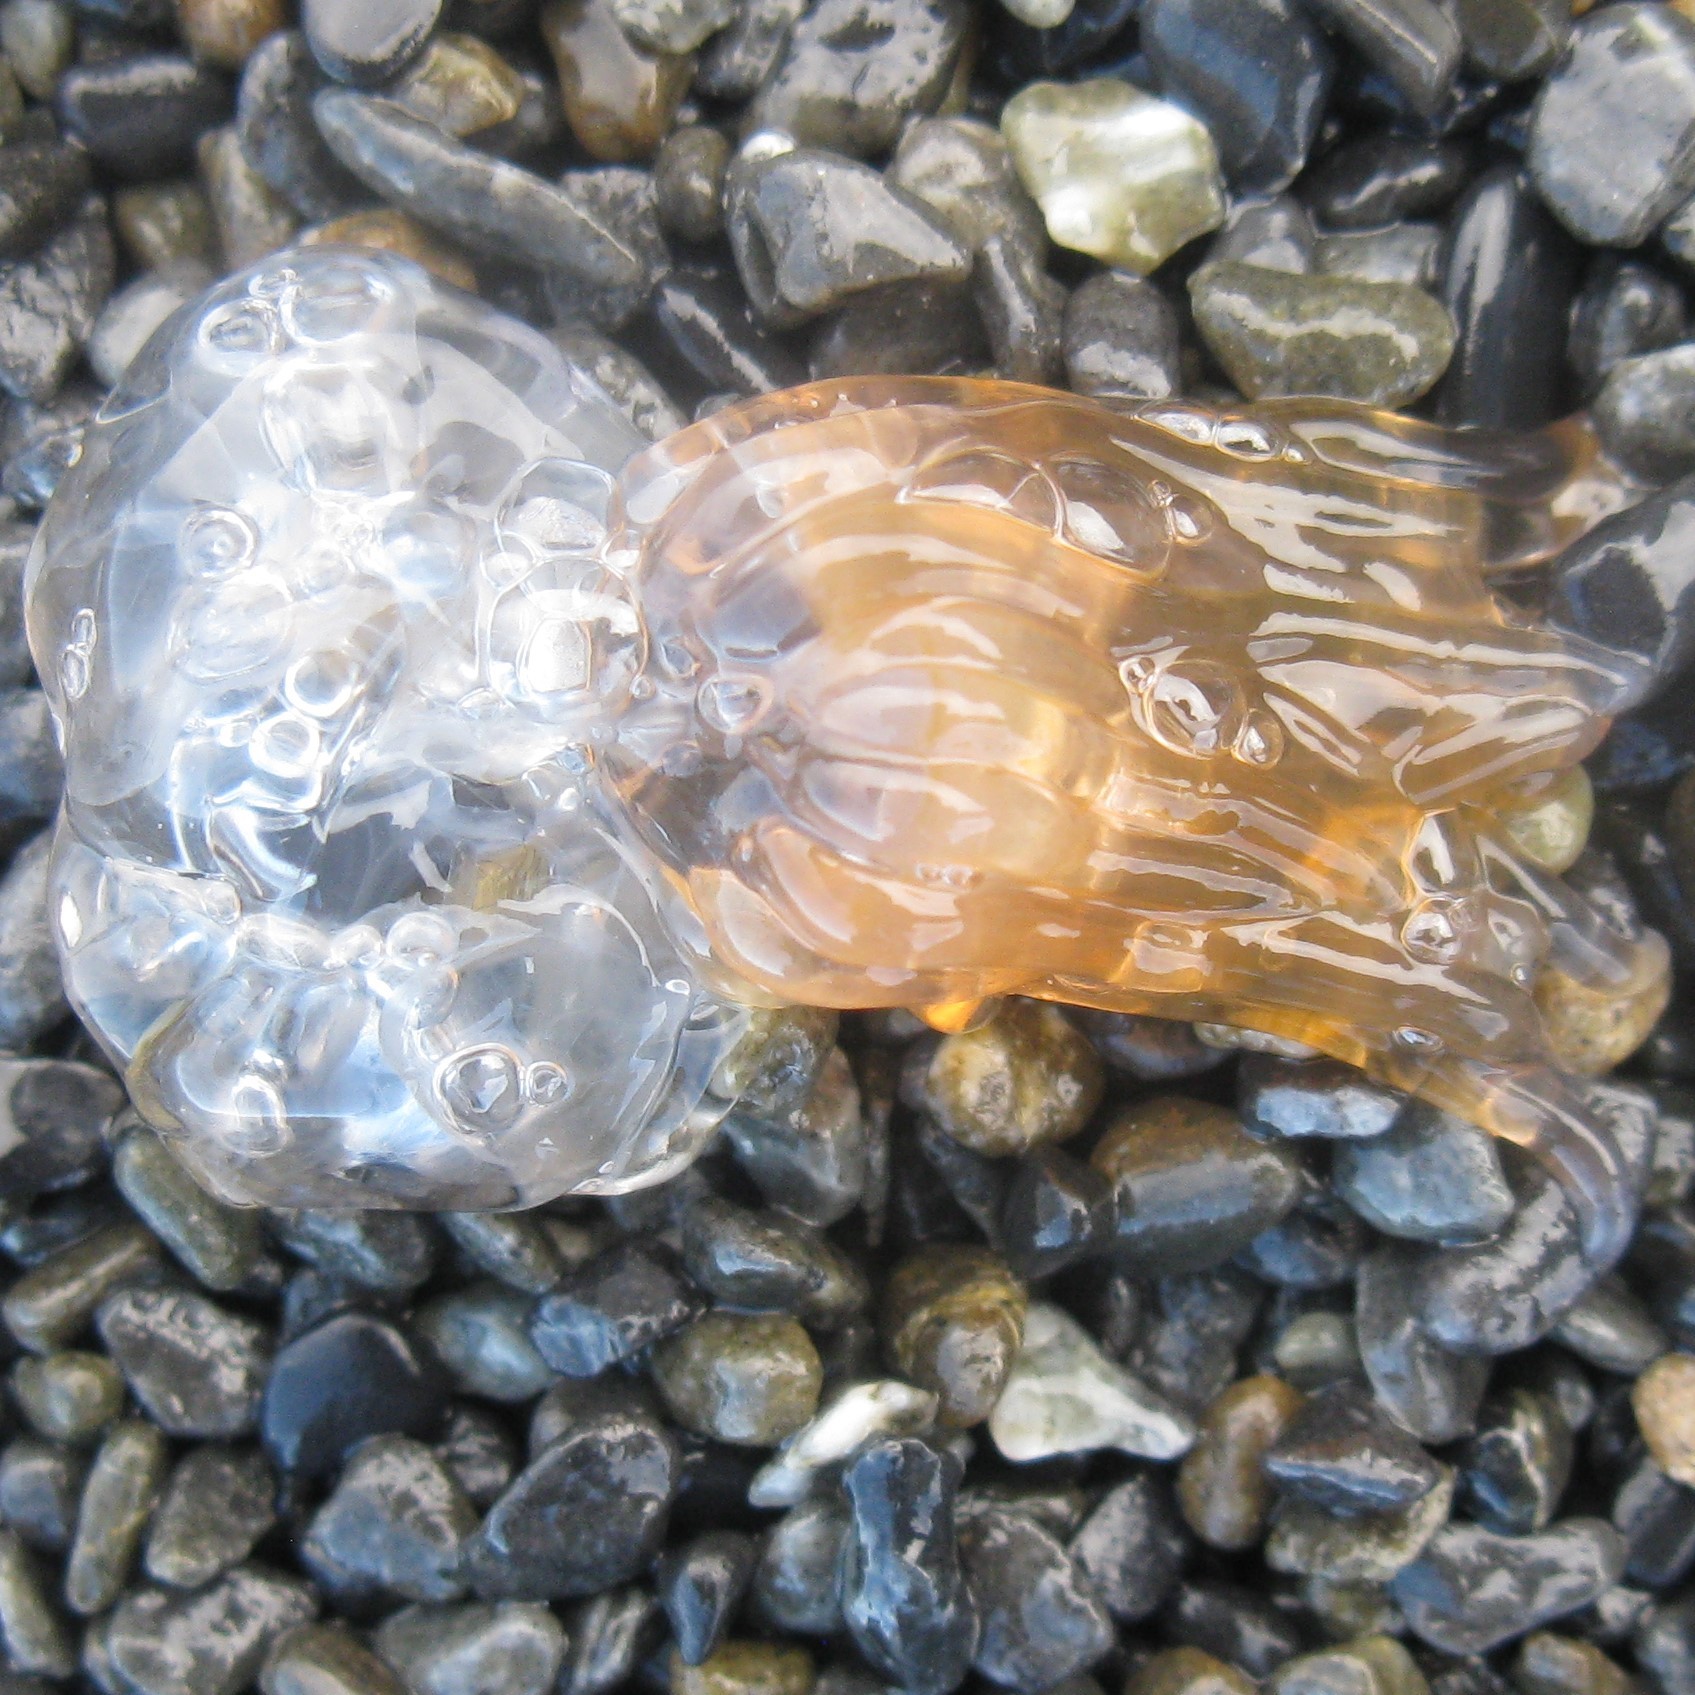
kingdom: Animalia
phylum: Cnidaria
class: Hydrozoa
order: Siphonophorae
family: Physophoridae
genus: Physophora
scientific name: Physophora hydrostatica
